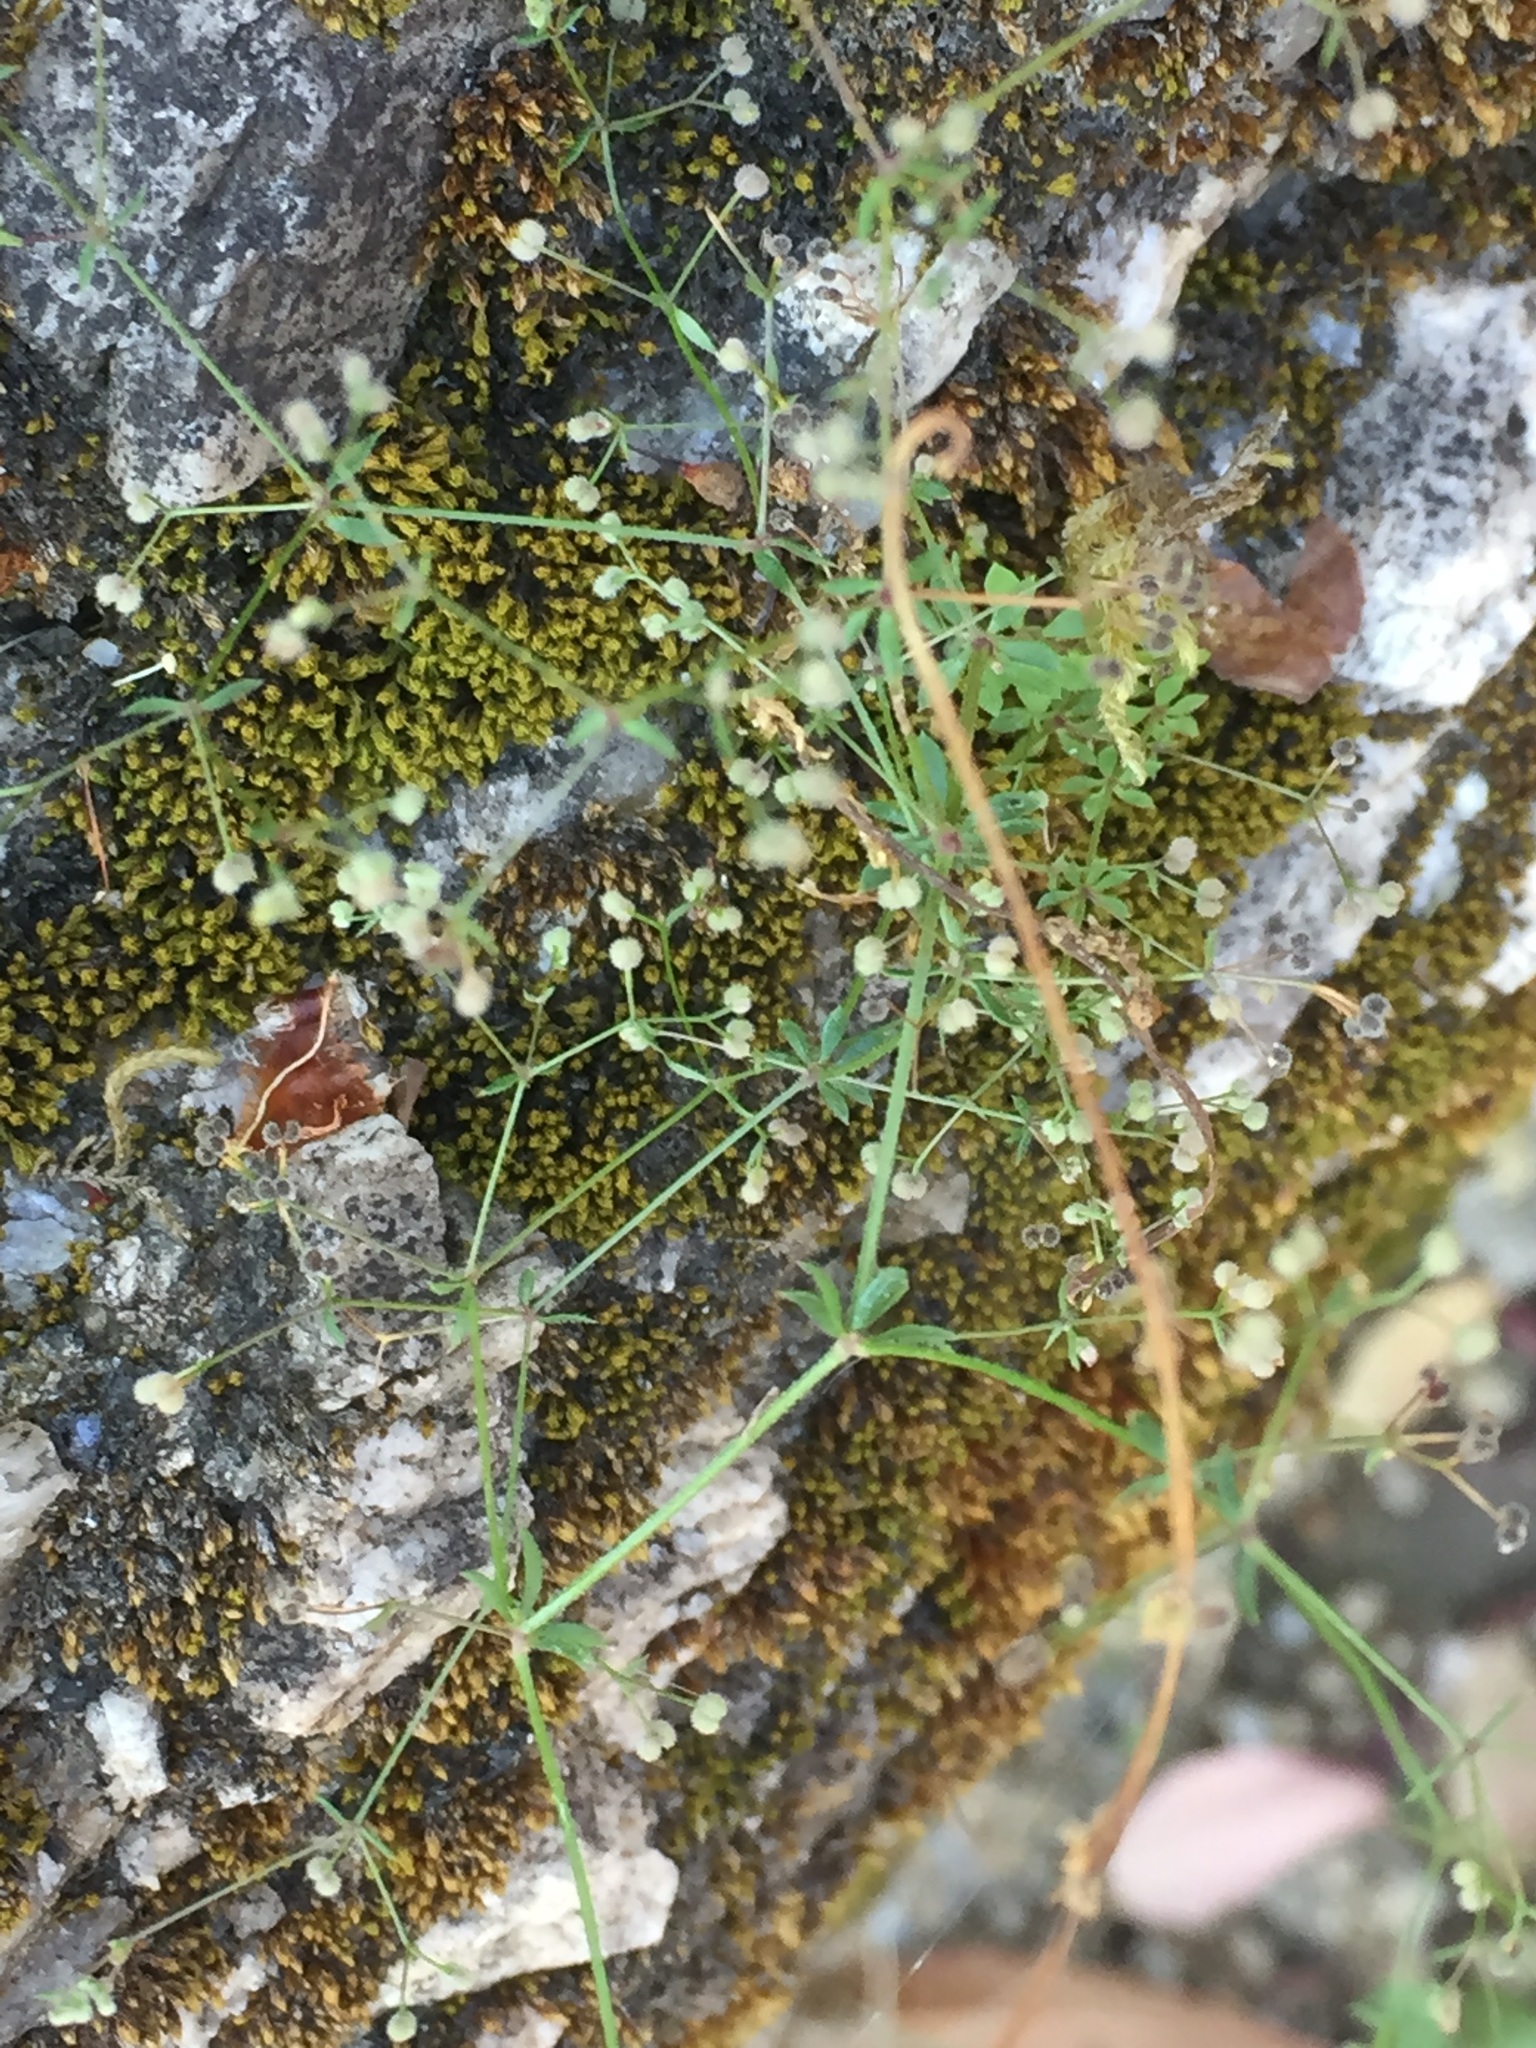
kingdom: Plantae
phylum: Tracheophyta
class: Magnoliopsida
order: Gentianales
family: Rubiaceae
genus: Galium
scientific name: Galium parisiense
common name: Wall bedstraw
